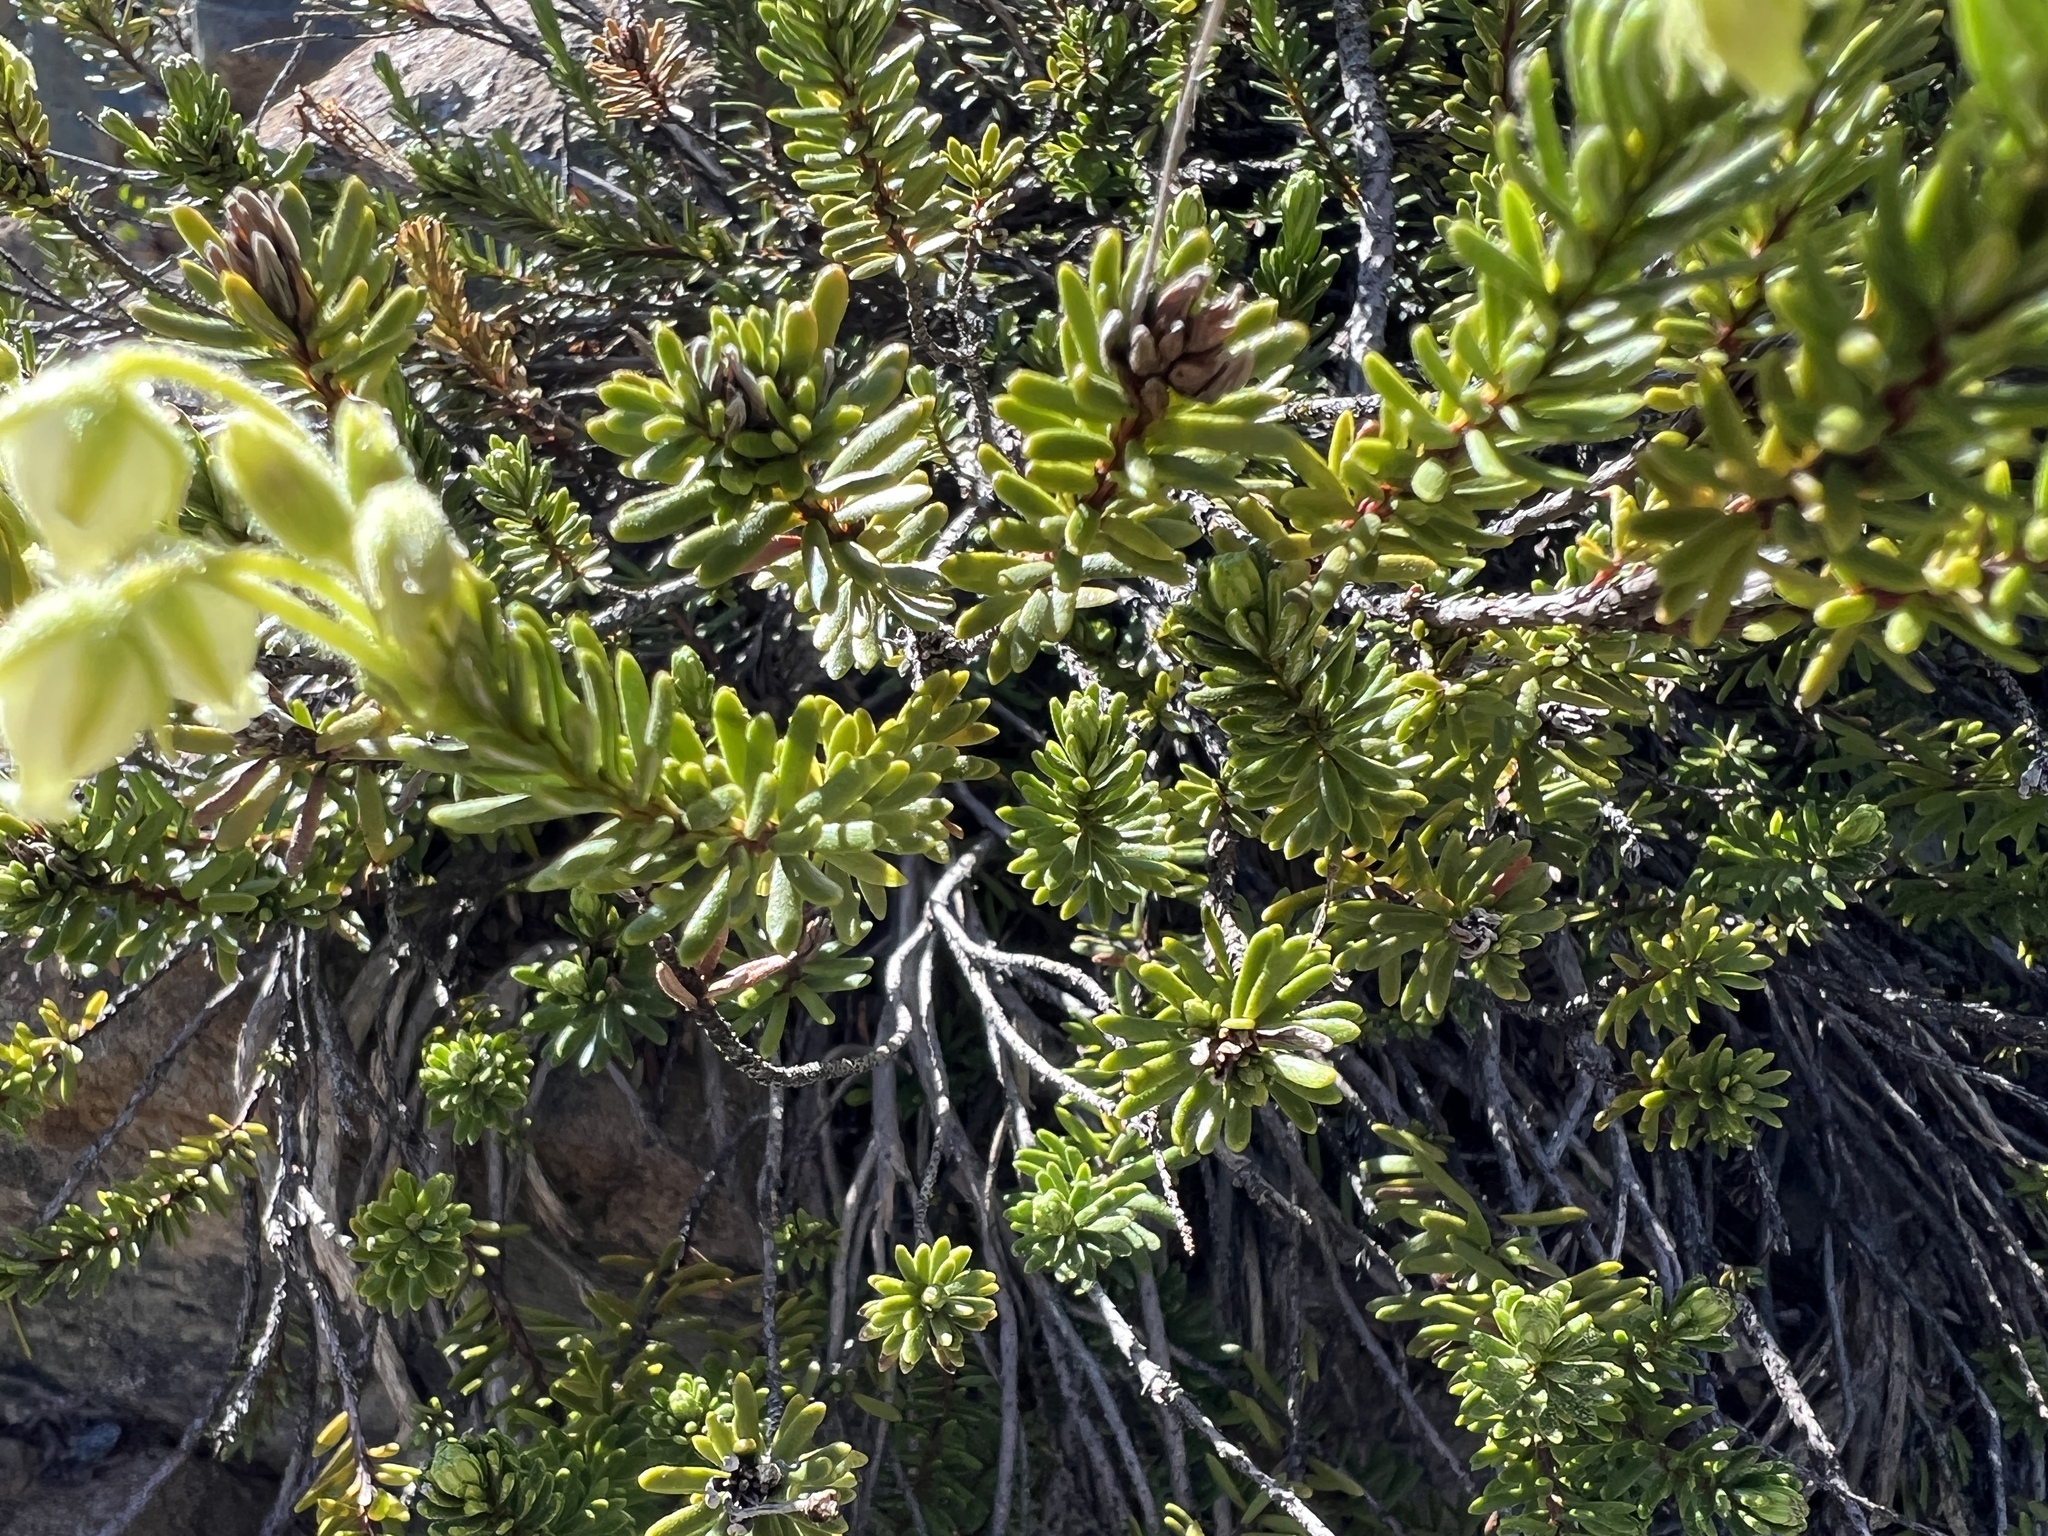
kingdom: Plantae
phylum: Tracheophyta
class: Magnoliopsida
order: Ericales
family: Ericaceae
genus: Phyllodoce
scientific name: Phyllodoce glanduliflora
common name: Cream mountain heather
